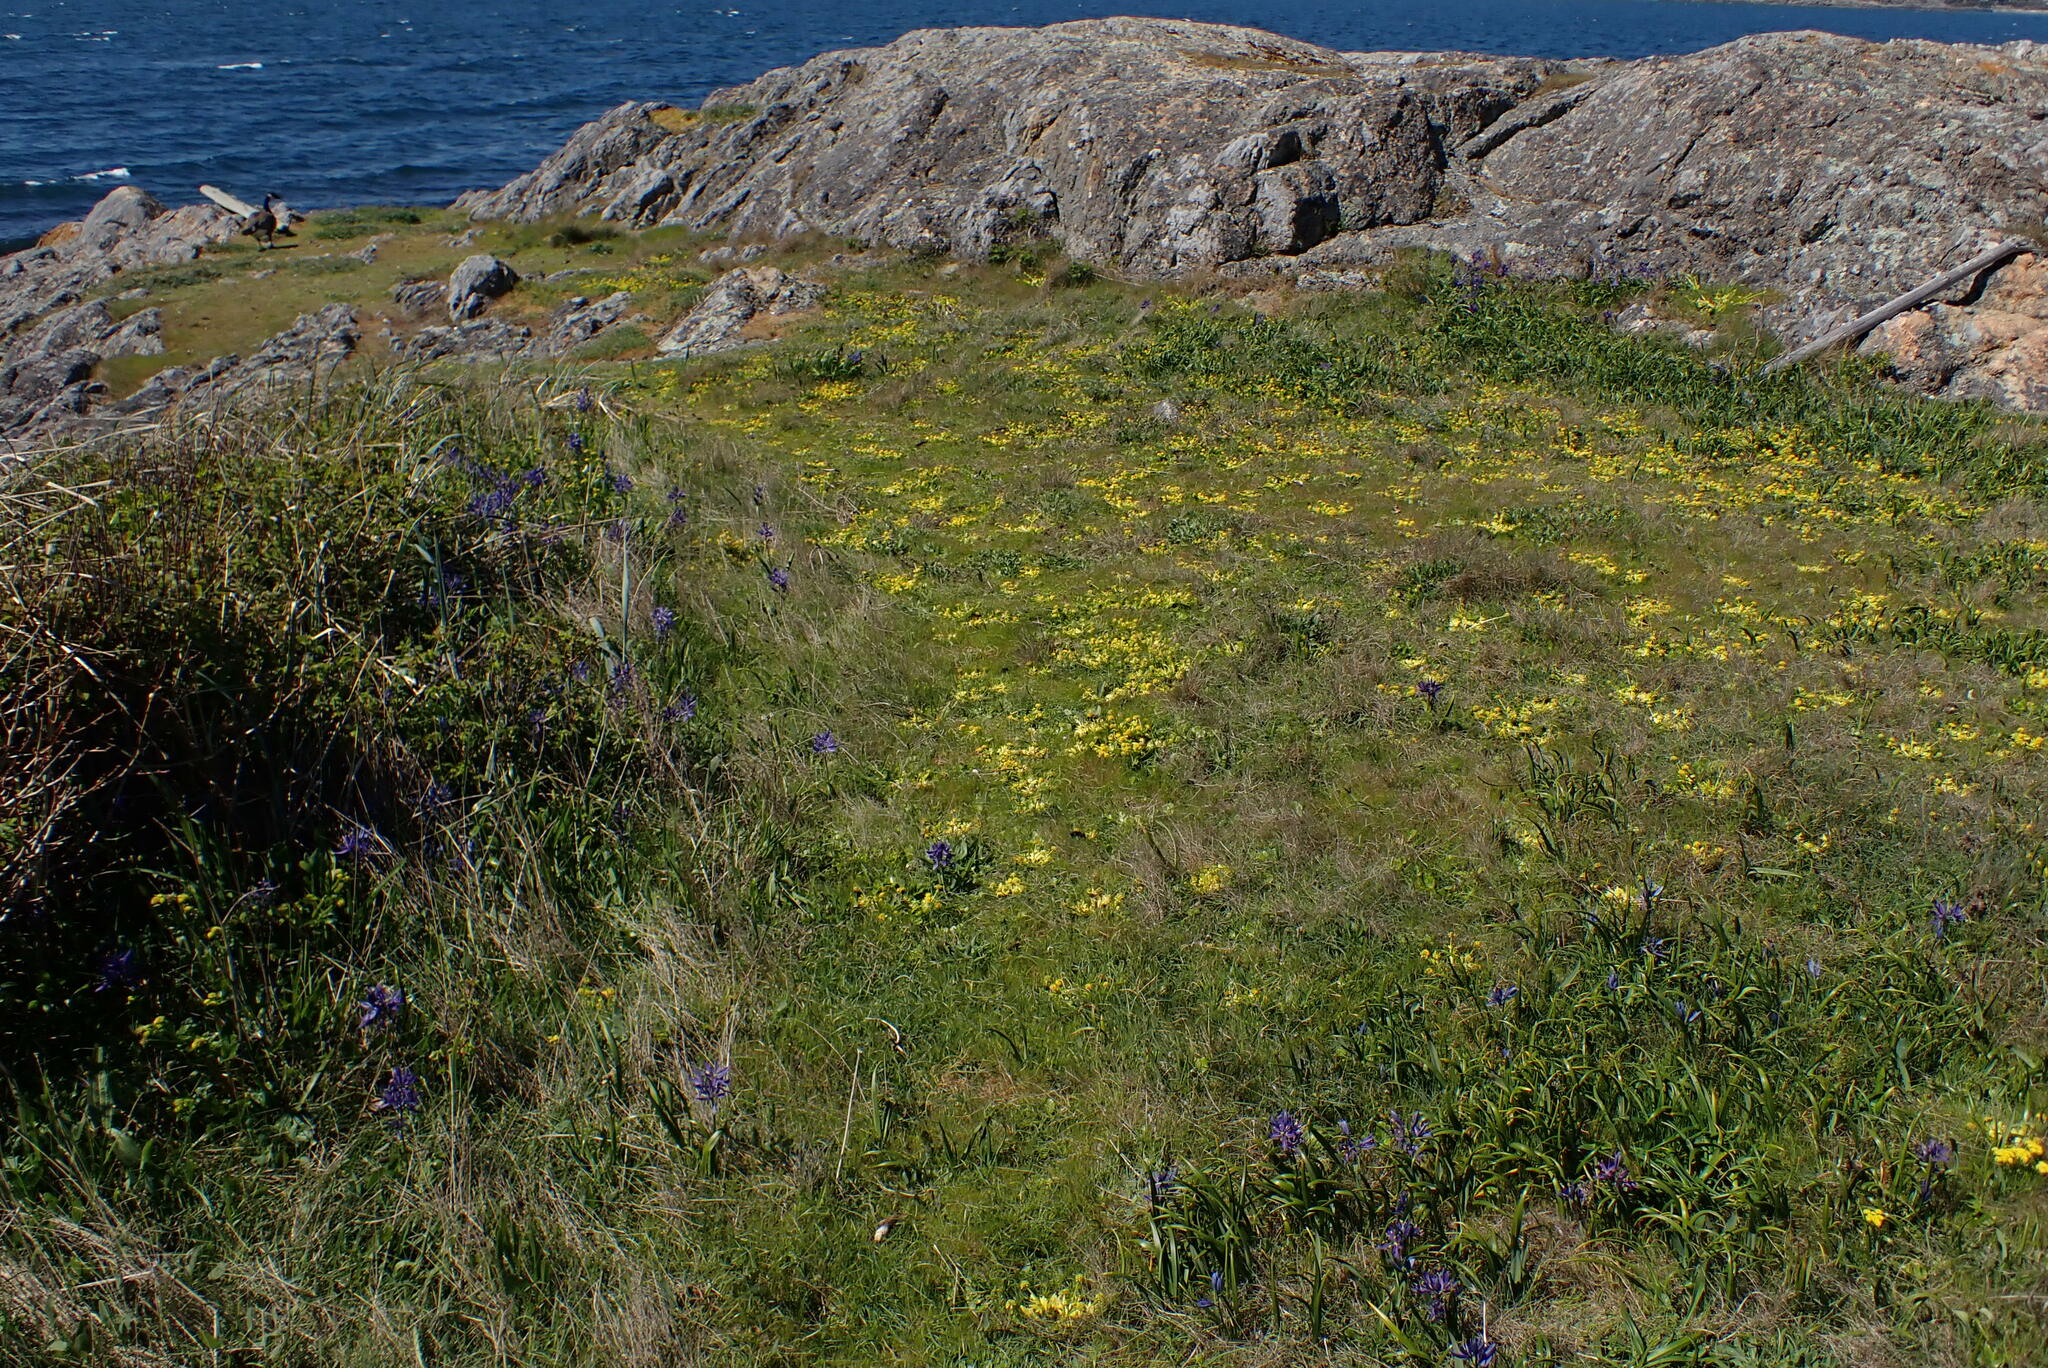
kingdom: Plantae
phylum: Tracheophyta
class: Magnoliopsida
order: Apiales
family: Apiaceae
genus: Sanicula
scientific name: Sanicula arctopoides
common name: Footsteps-of-spring
